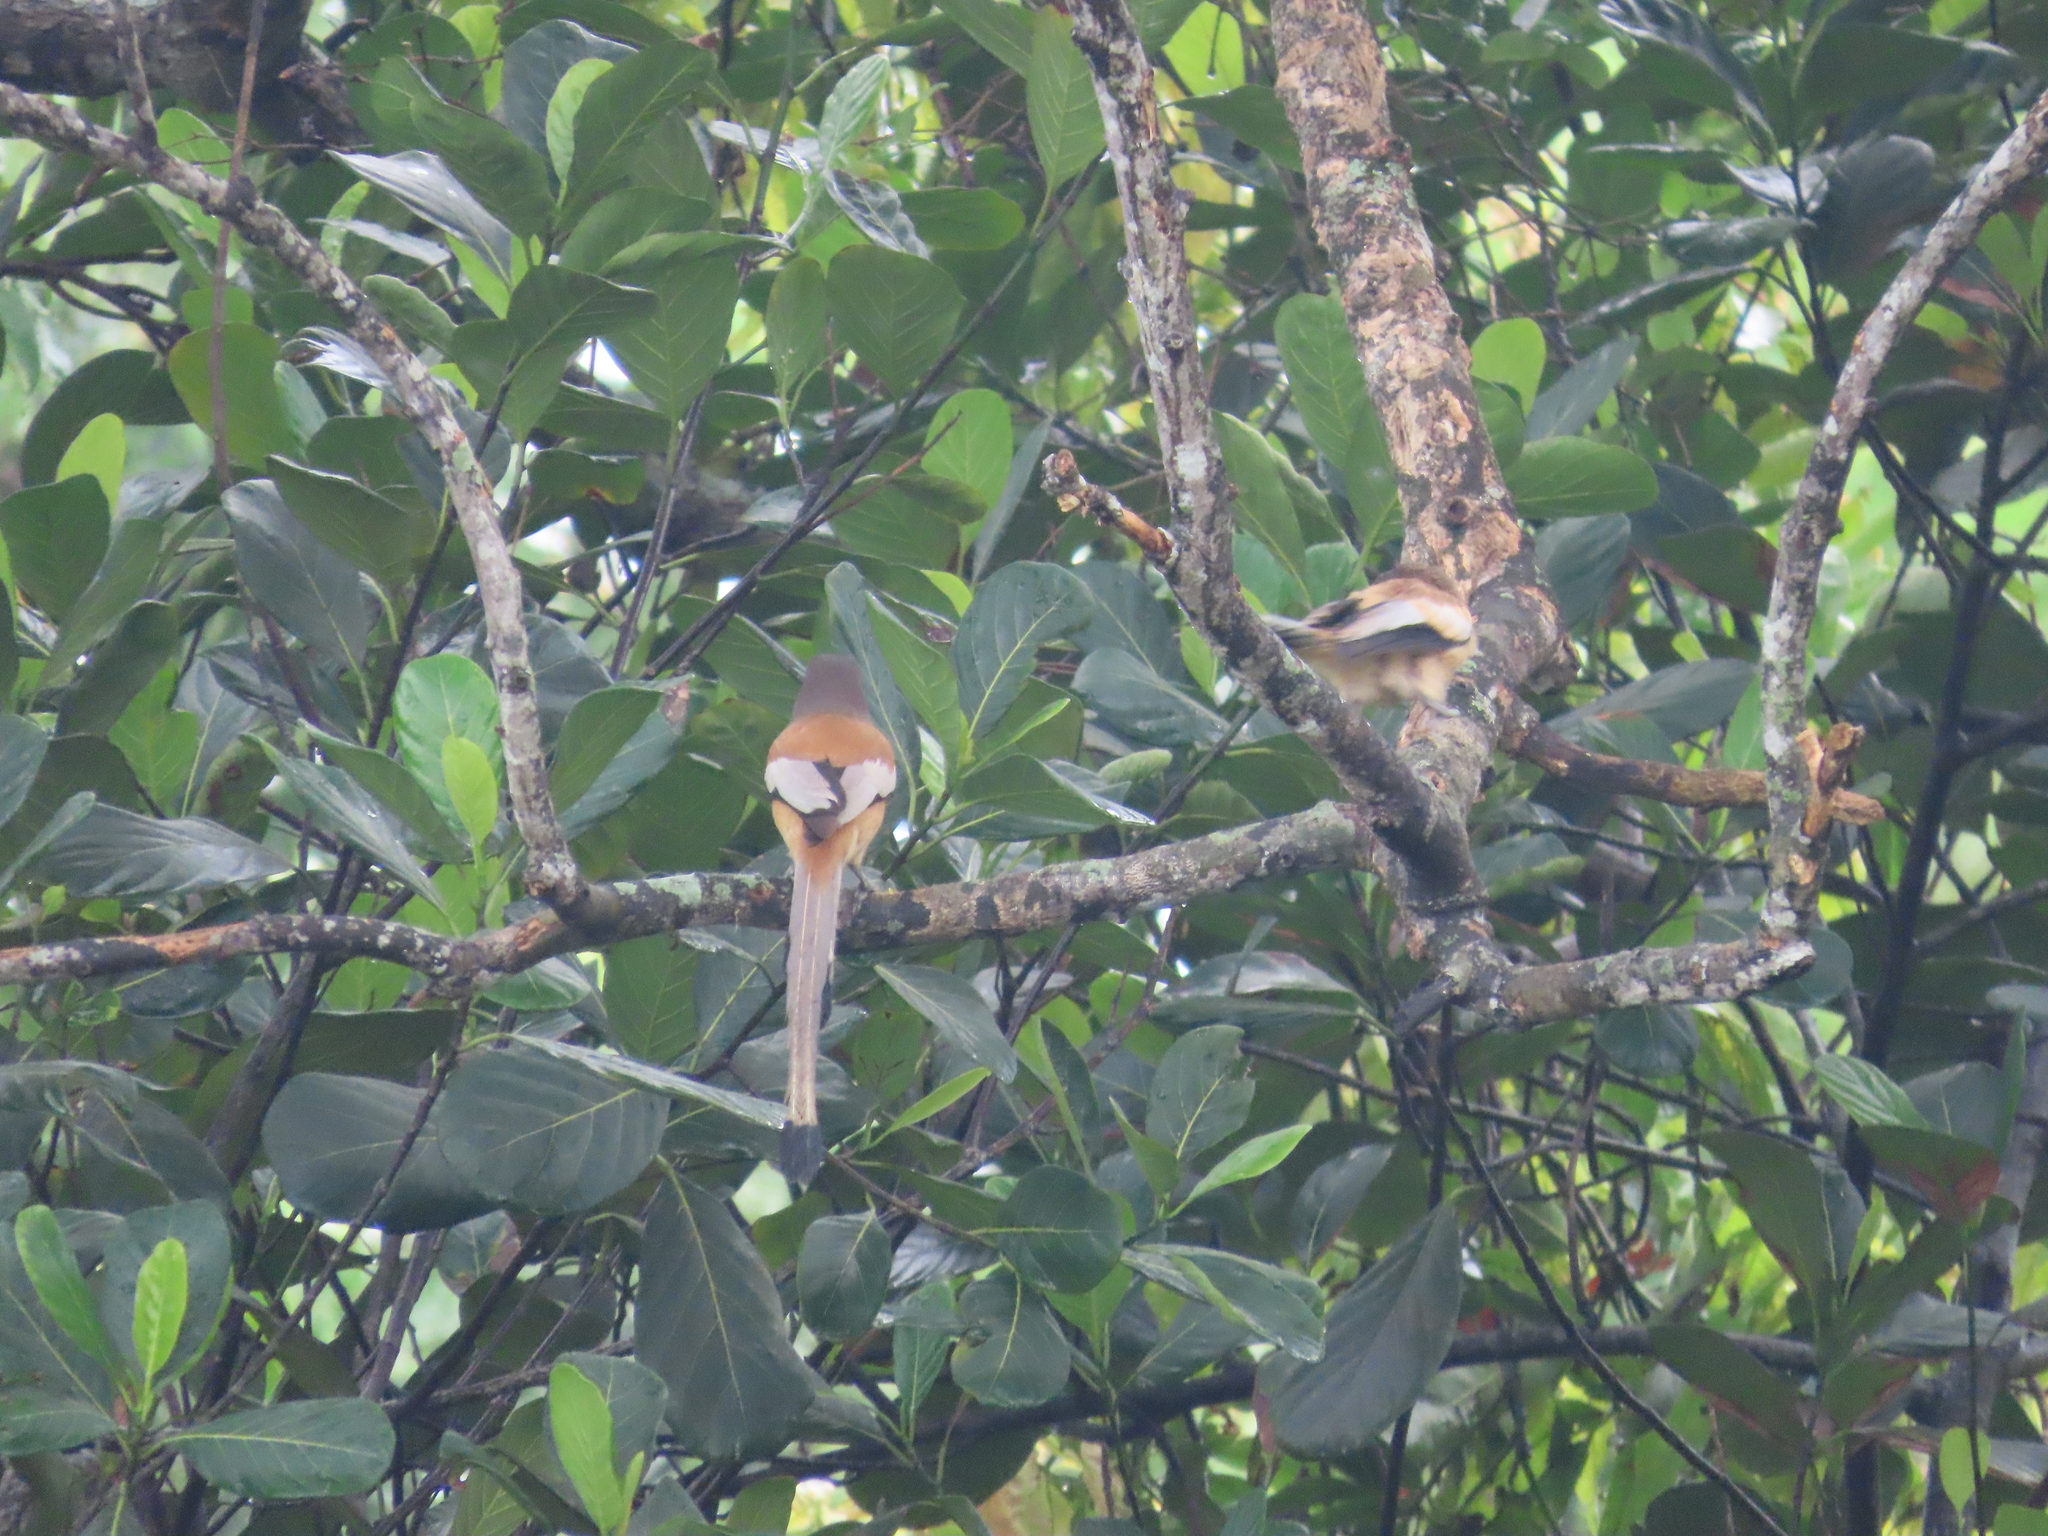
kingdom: Animalia
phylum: Chordata
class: Aves
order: Passeriformes
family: Corvidae
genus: Dendrocitta
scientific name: Dendrocitta vagabunda
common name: Rufous treepie
